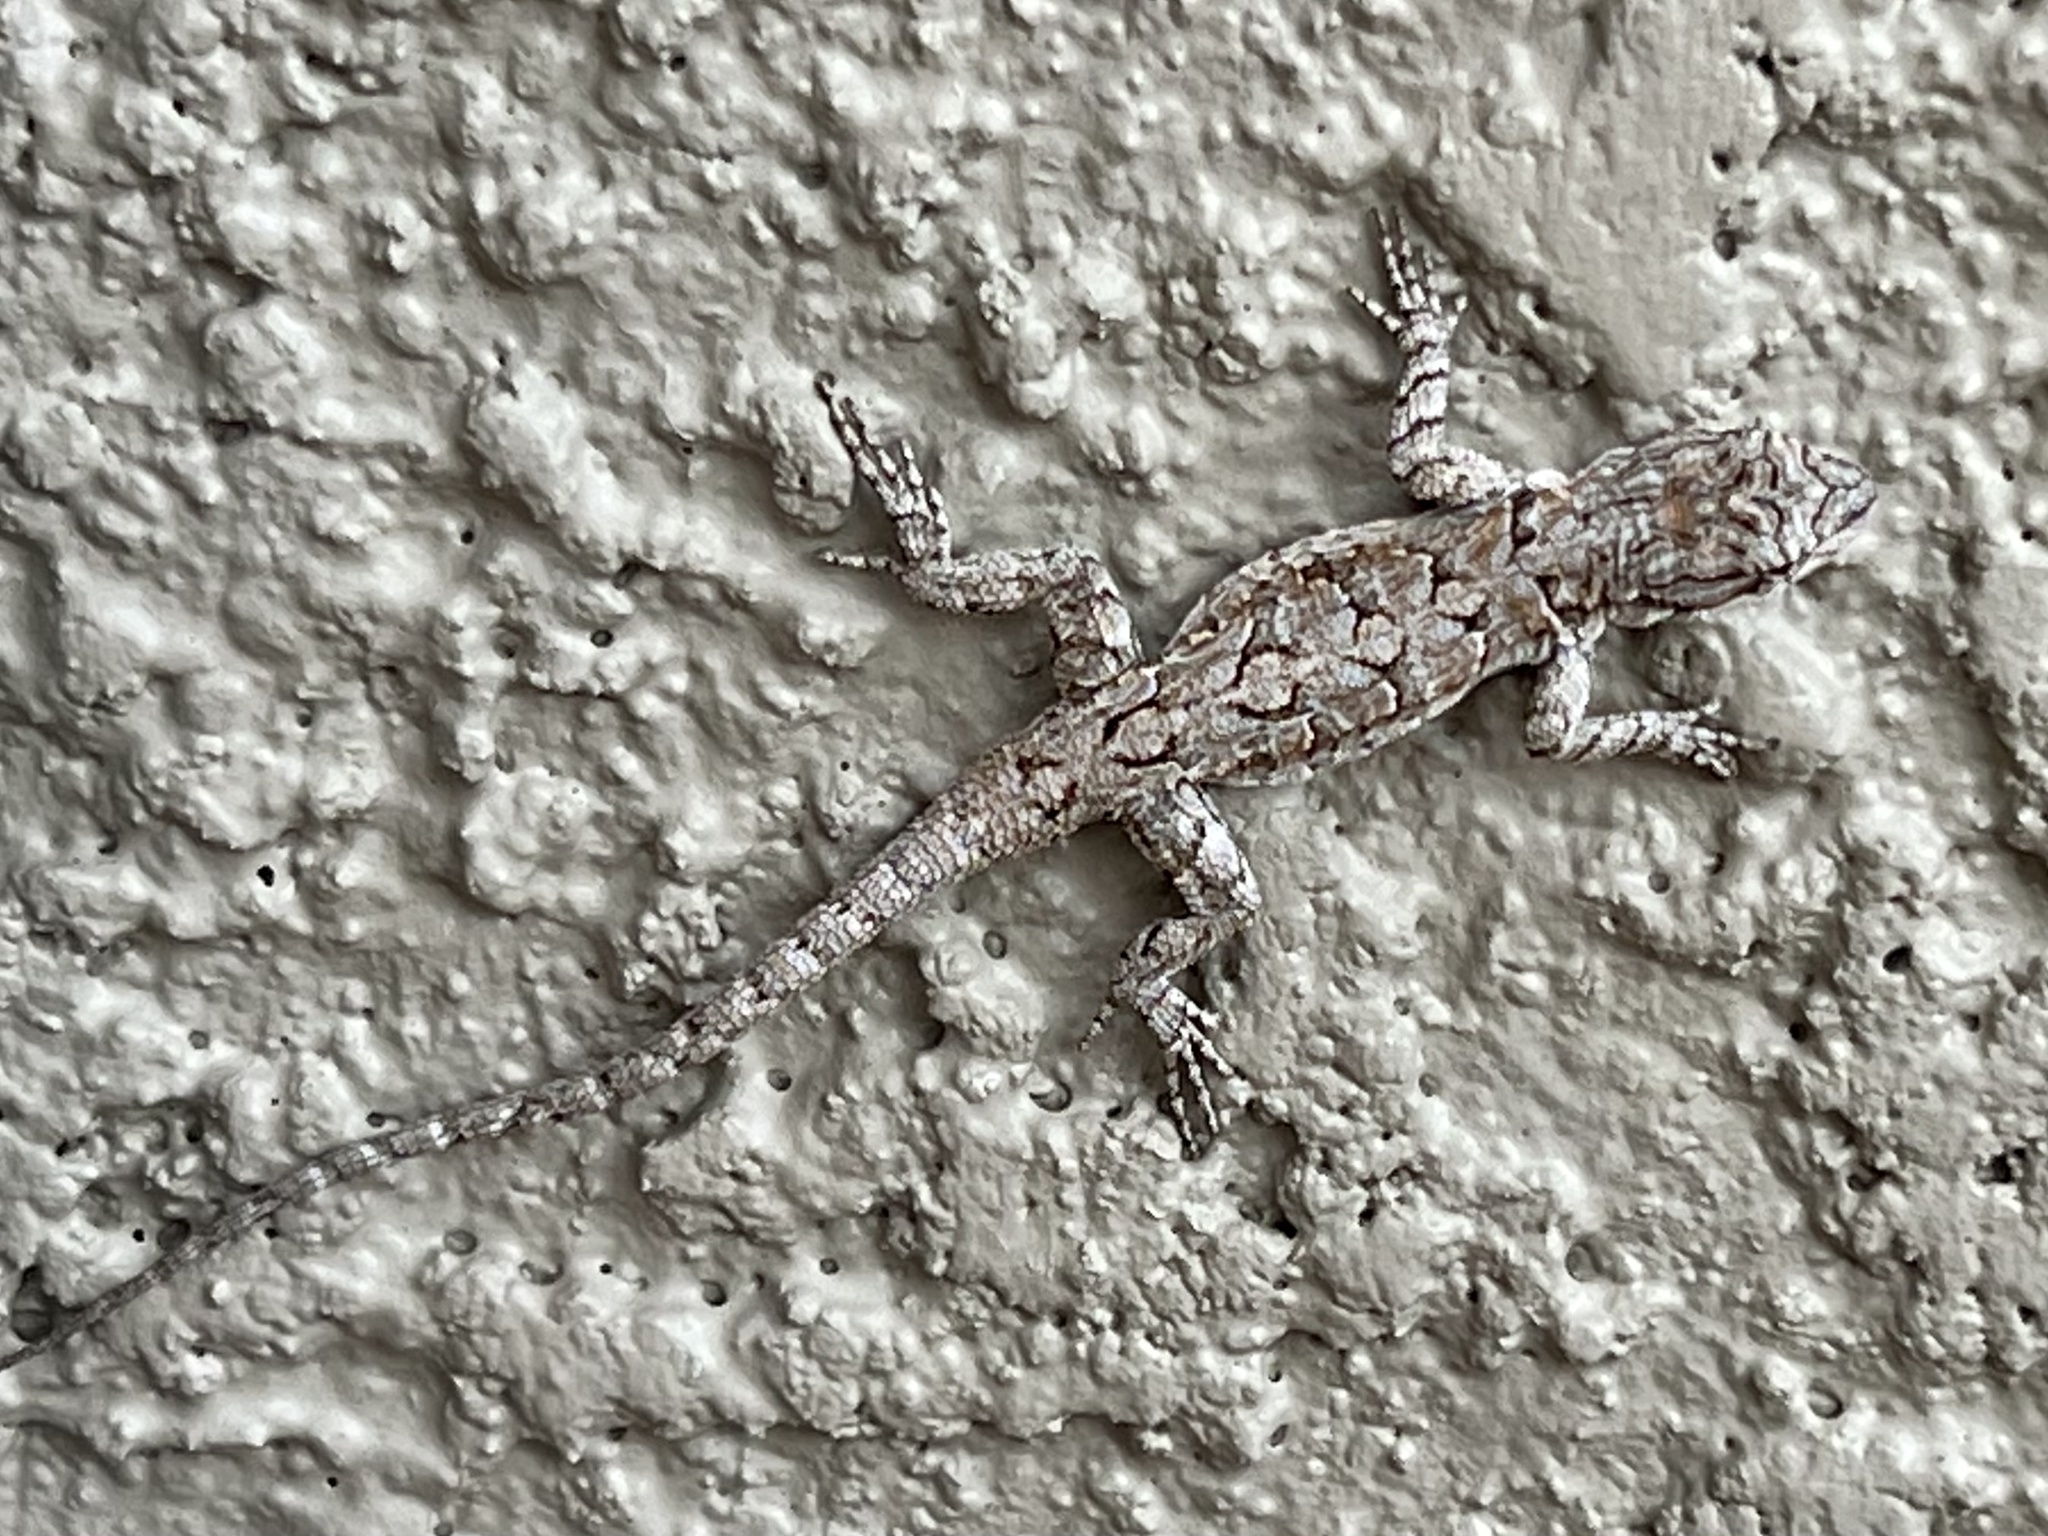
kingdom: Animalia
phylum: Chordata
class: Squamata
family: Phrynosomatidae
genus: Urosaurus
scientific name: Urosaurus ornatus
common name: Ornate tree lizard
